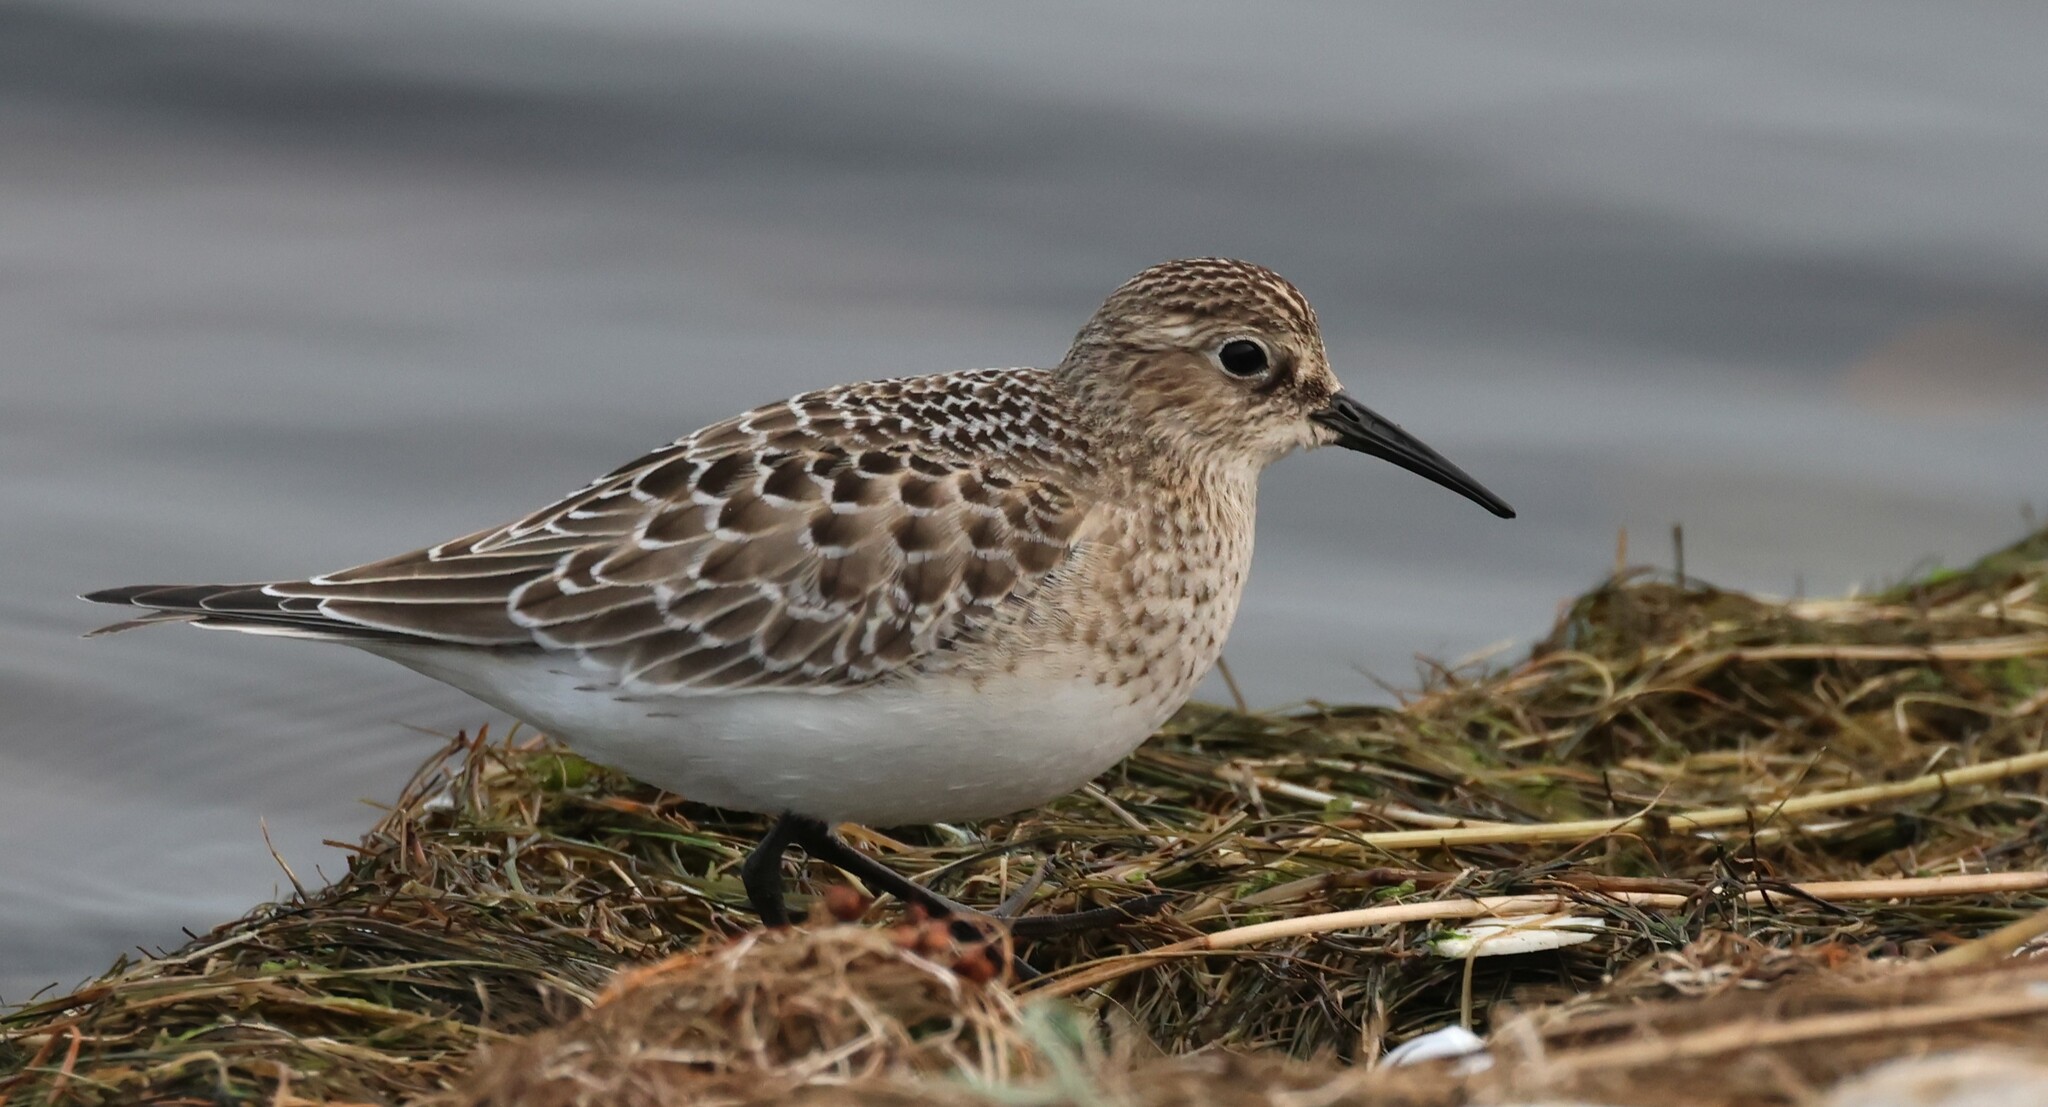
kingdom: Animalia
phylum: Chordata
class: Aves
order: Charadriiformes
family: Scolopacidae
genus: Calidris
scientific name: Calidris bairdii
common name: Baird's sandpiper
